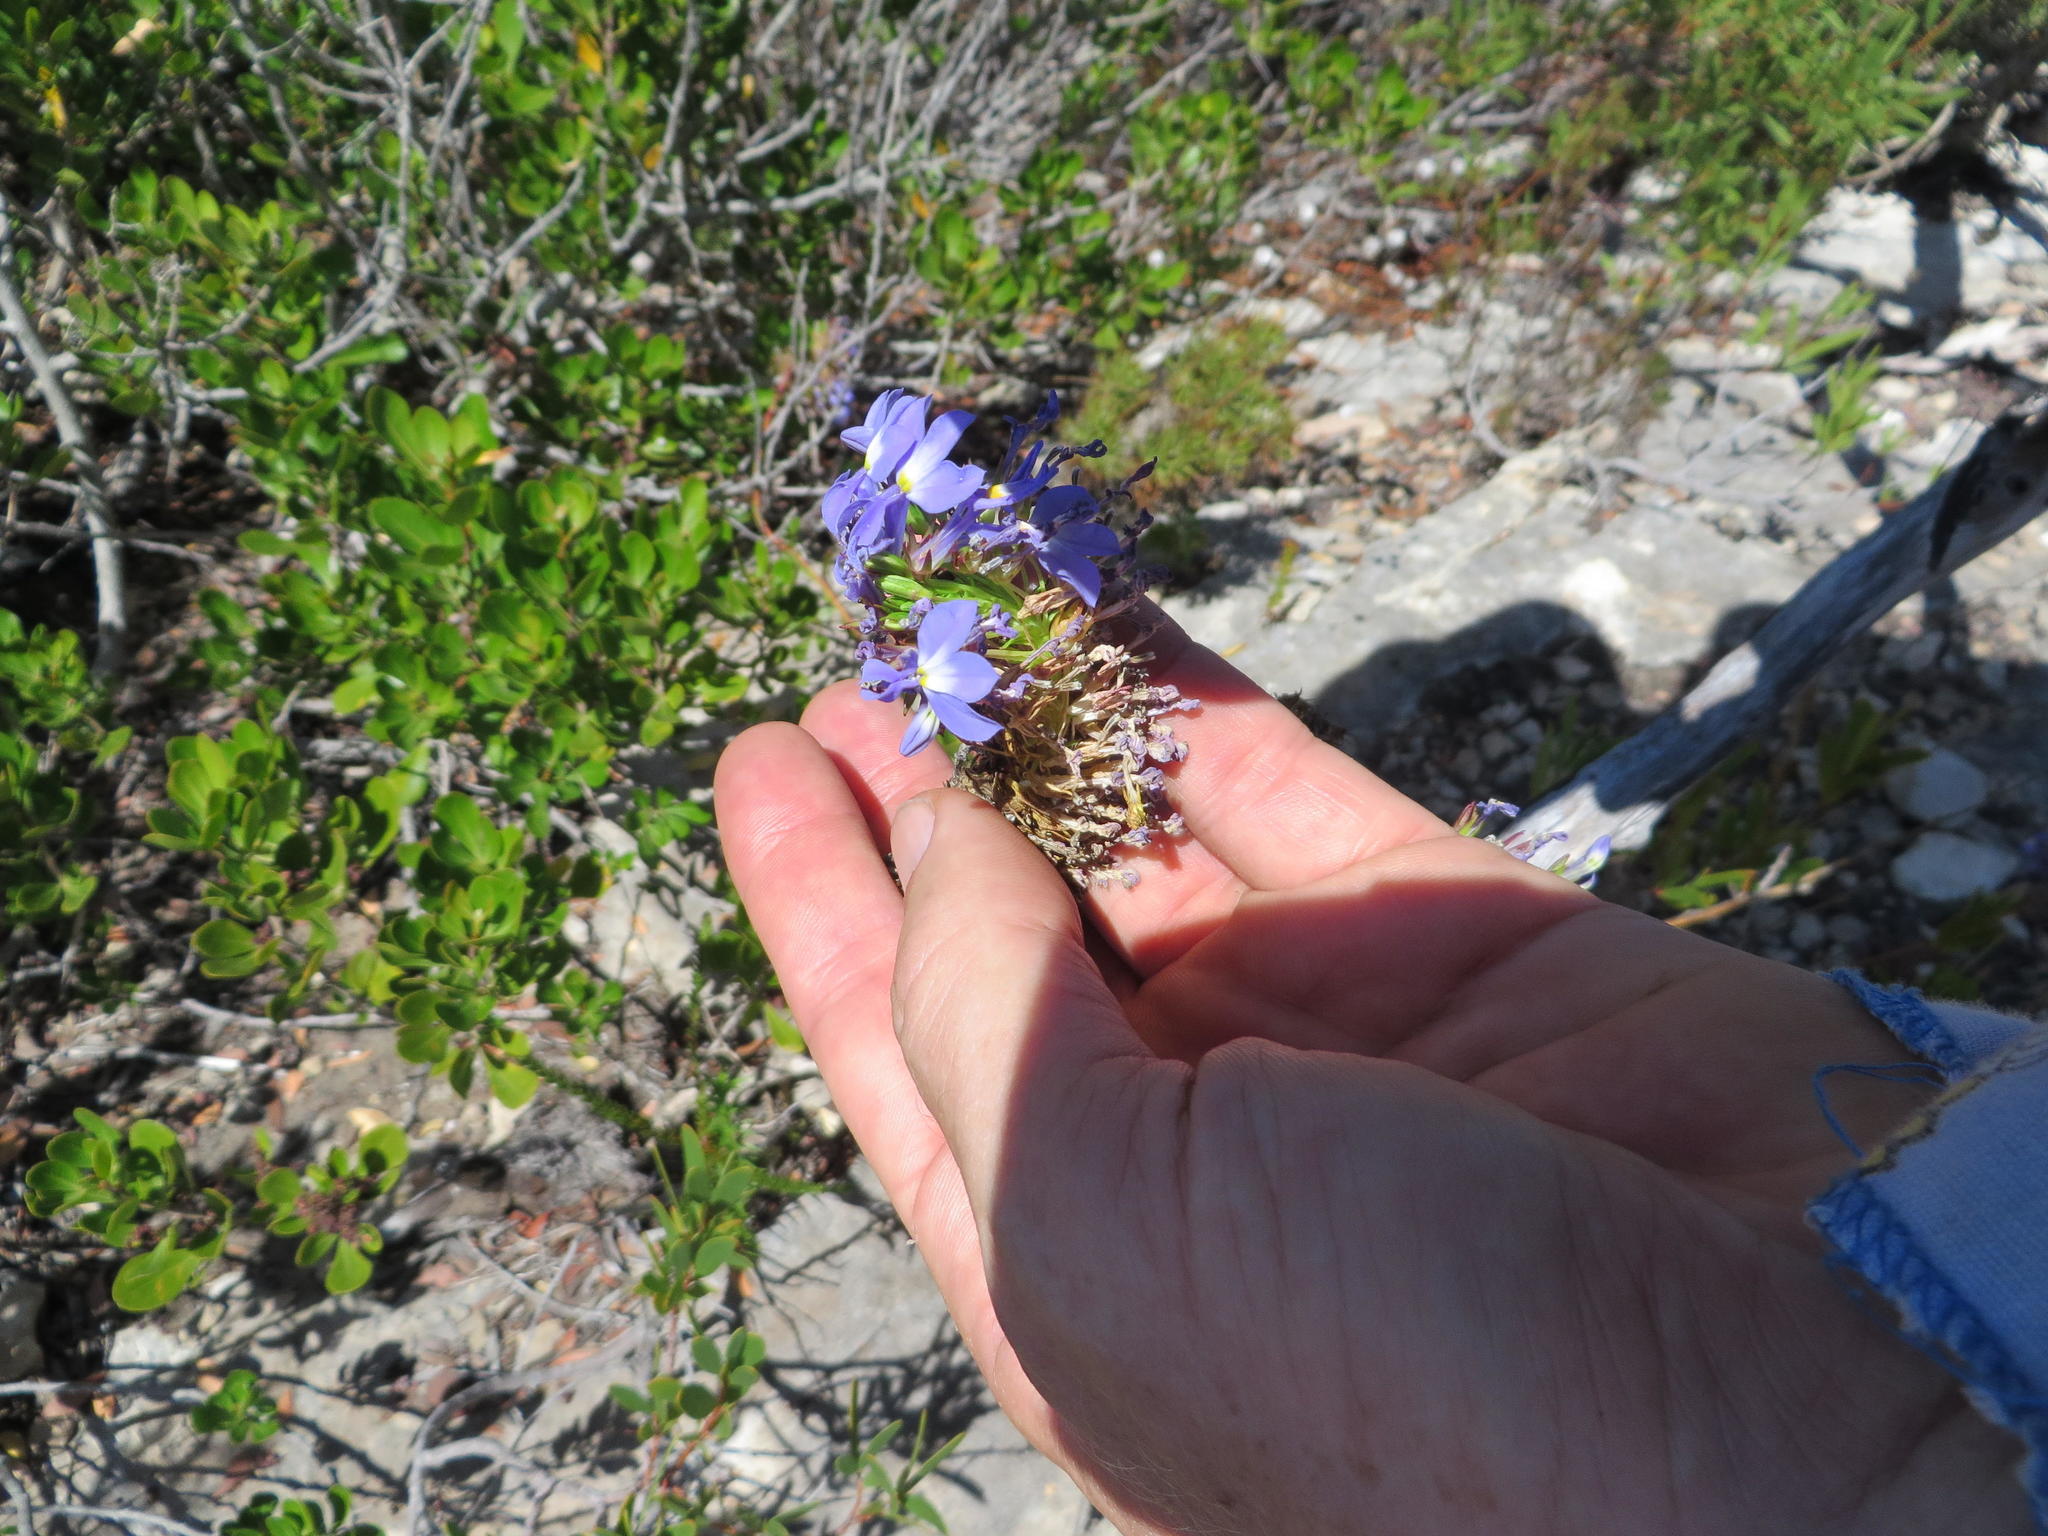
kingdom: Plantae
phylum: Tracheophyta
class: Magnoliopsida
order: Asterales
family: Campanulaceae
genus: Lobelia
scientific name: Lobelia valida
